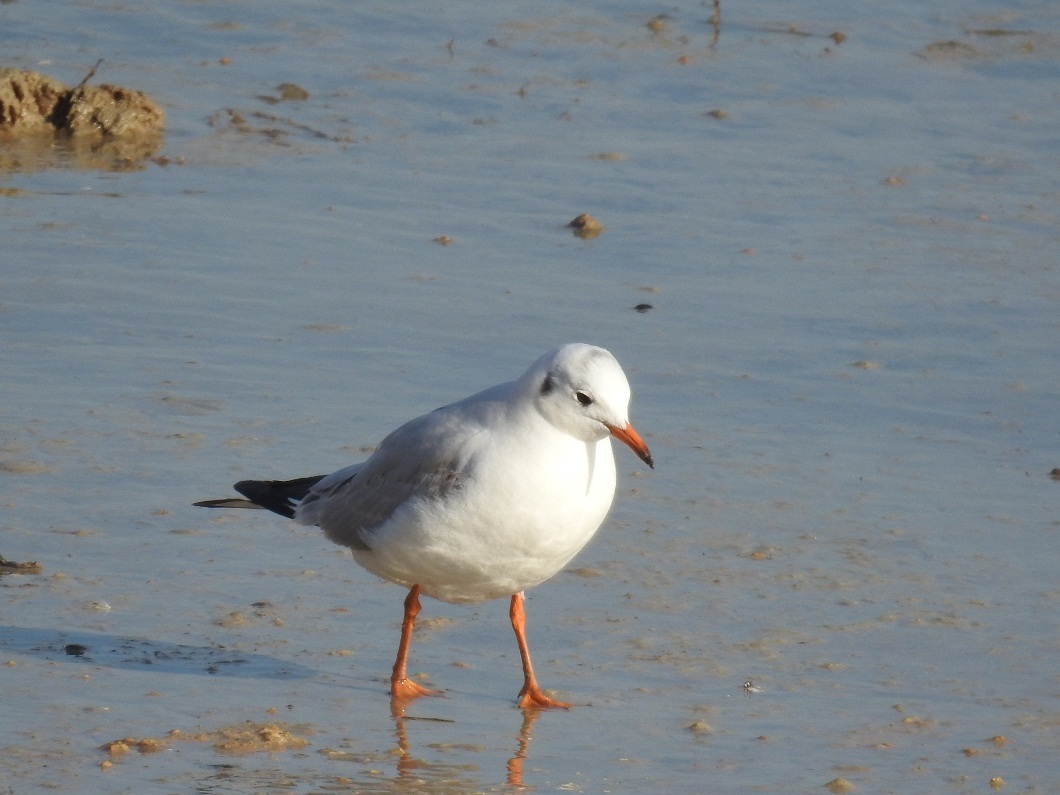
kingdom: Animalia
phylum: Chordata
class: Aves
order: Charadriiformes
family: Laridae
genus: Chroicocephalus
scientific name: Chroicocephalus ridibundus
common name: Black-headed gull
